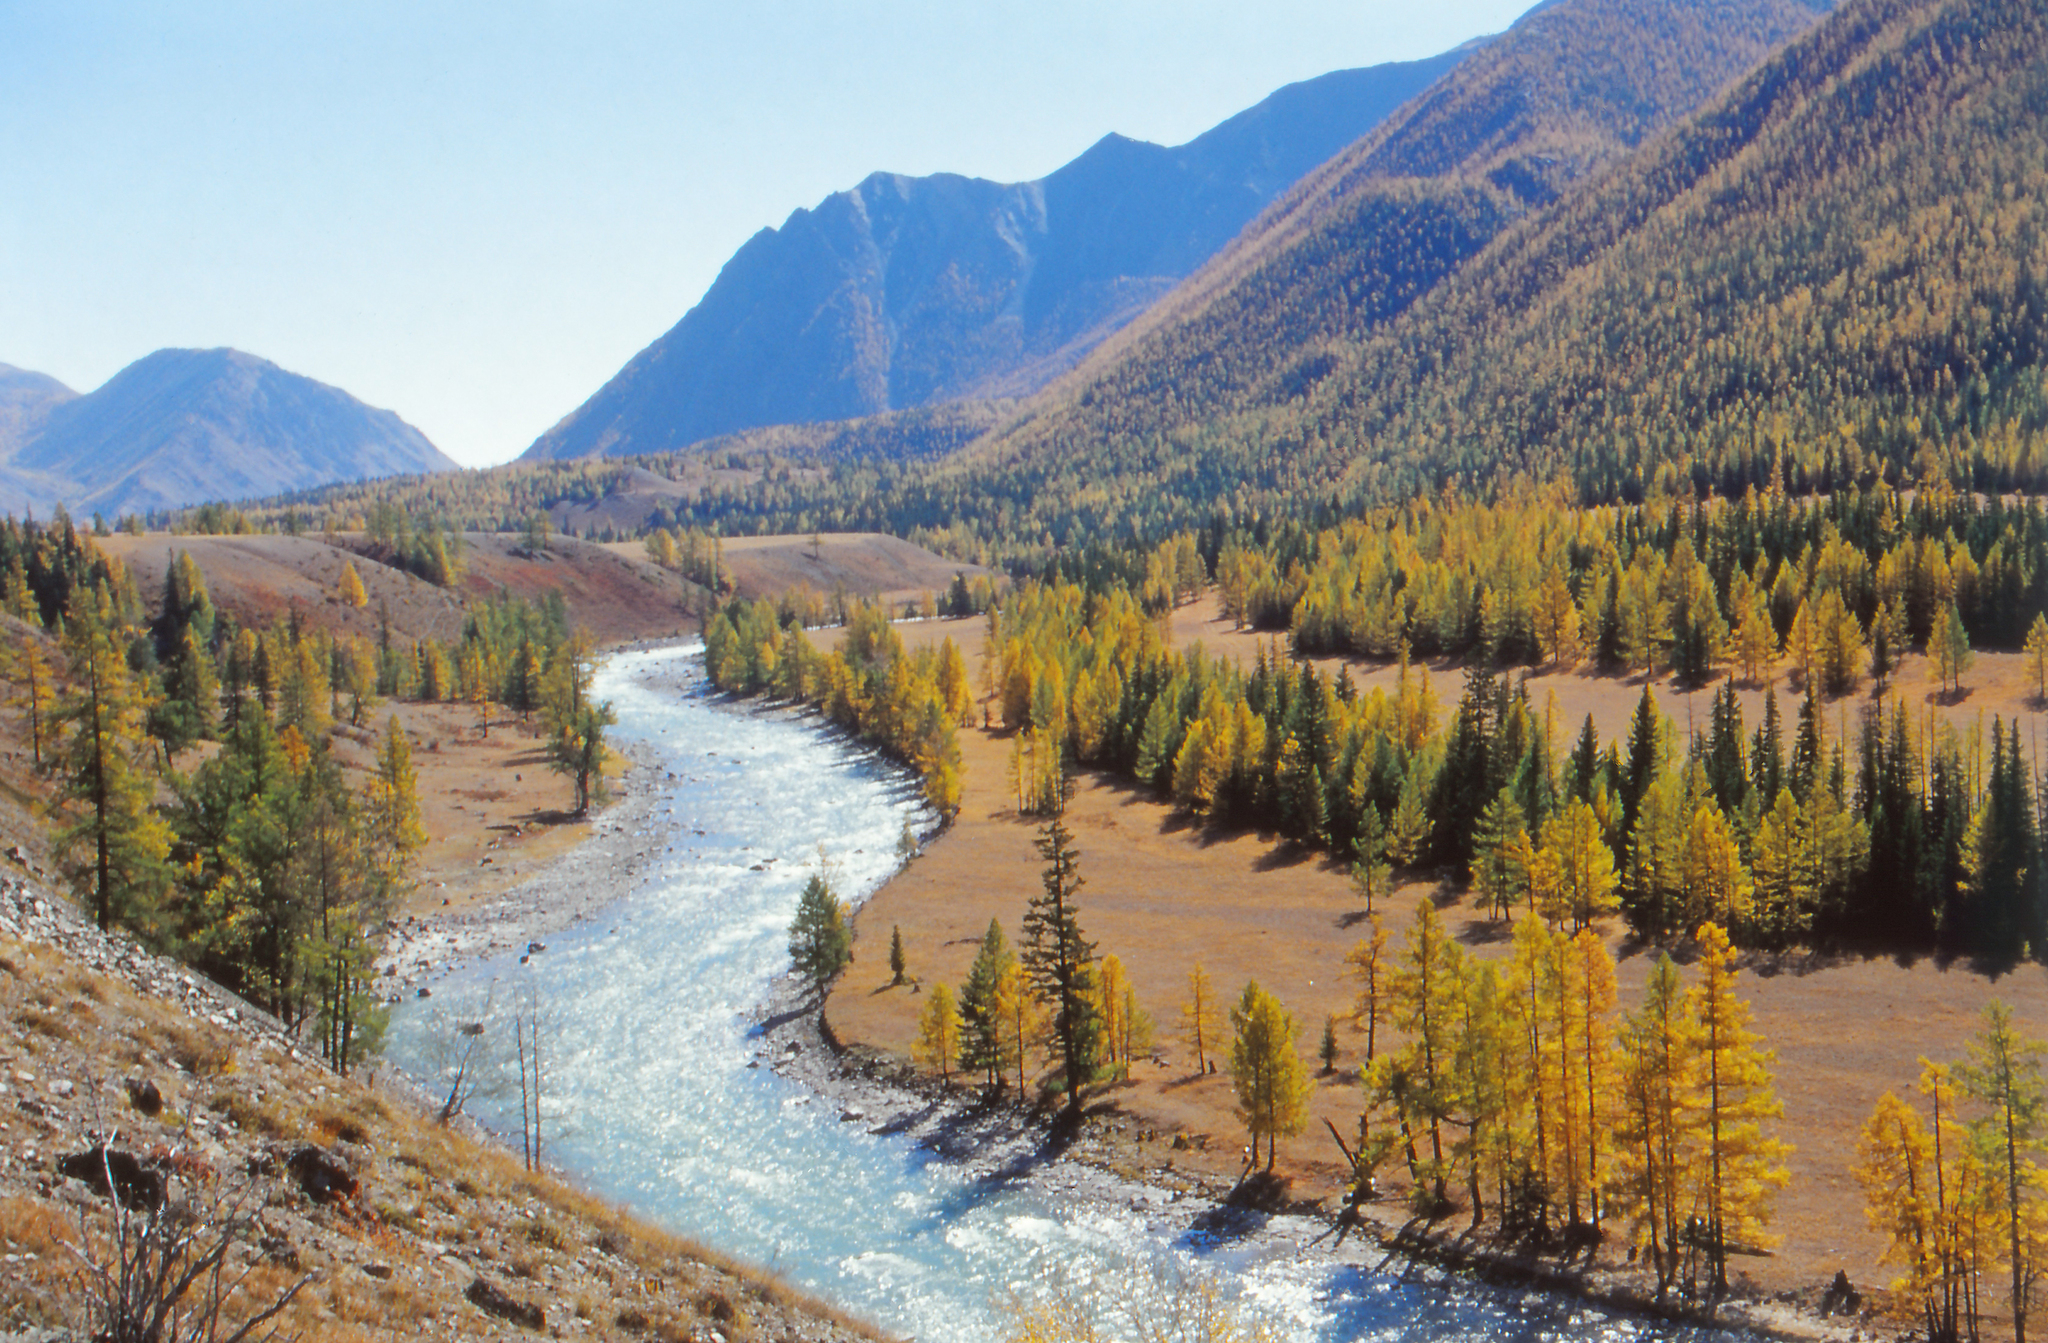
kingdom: Plantae
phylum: Tracheophyta
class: Pinopsida
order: Pinales
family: Pinaceae
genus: Larix
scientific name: Larix sibirica
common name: Siberian larch
